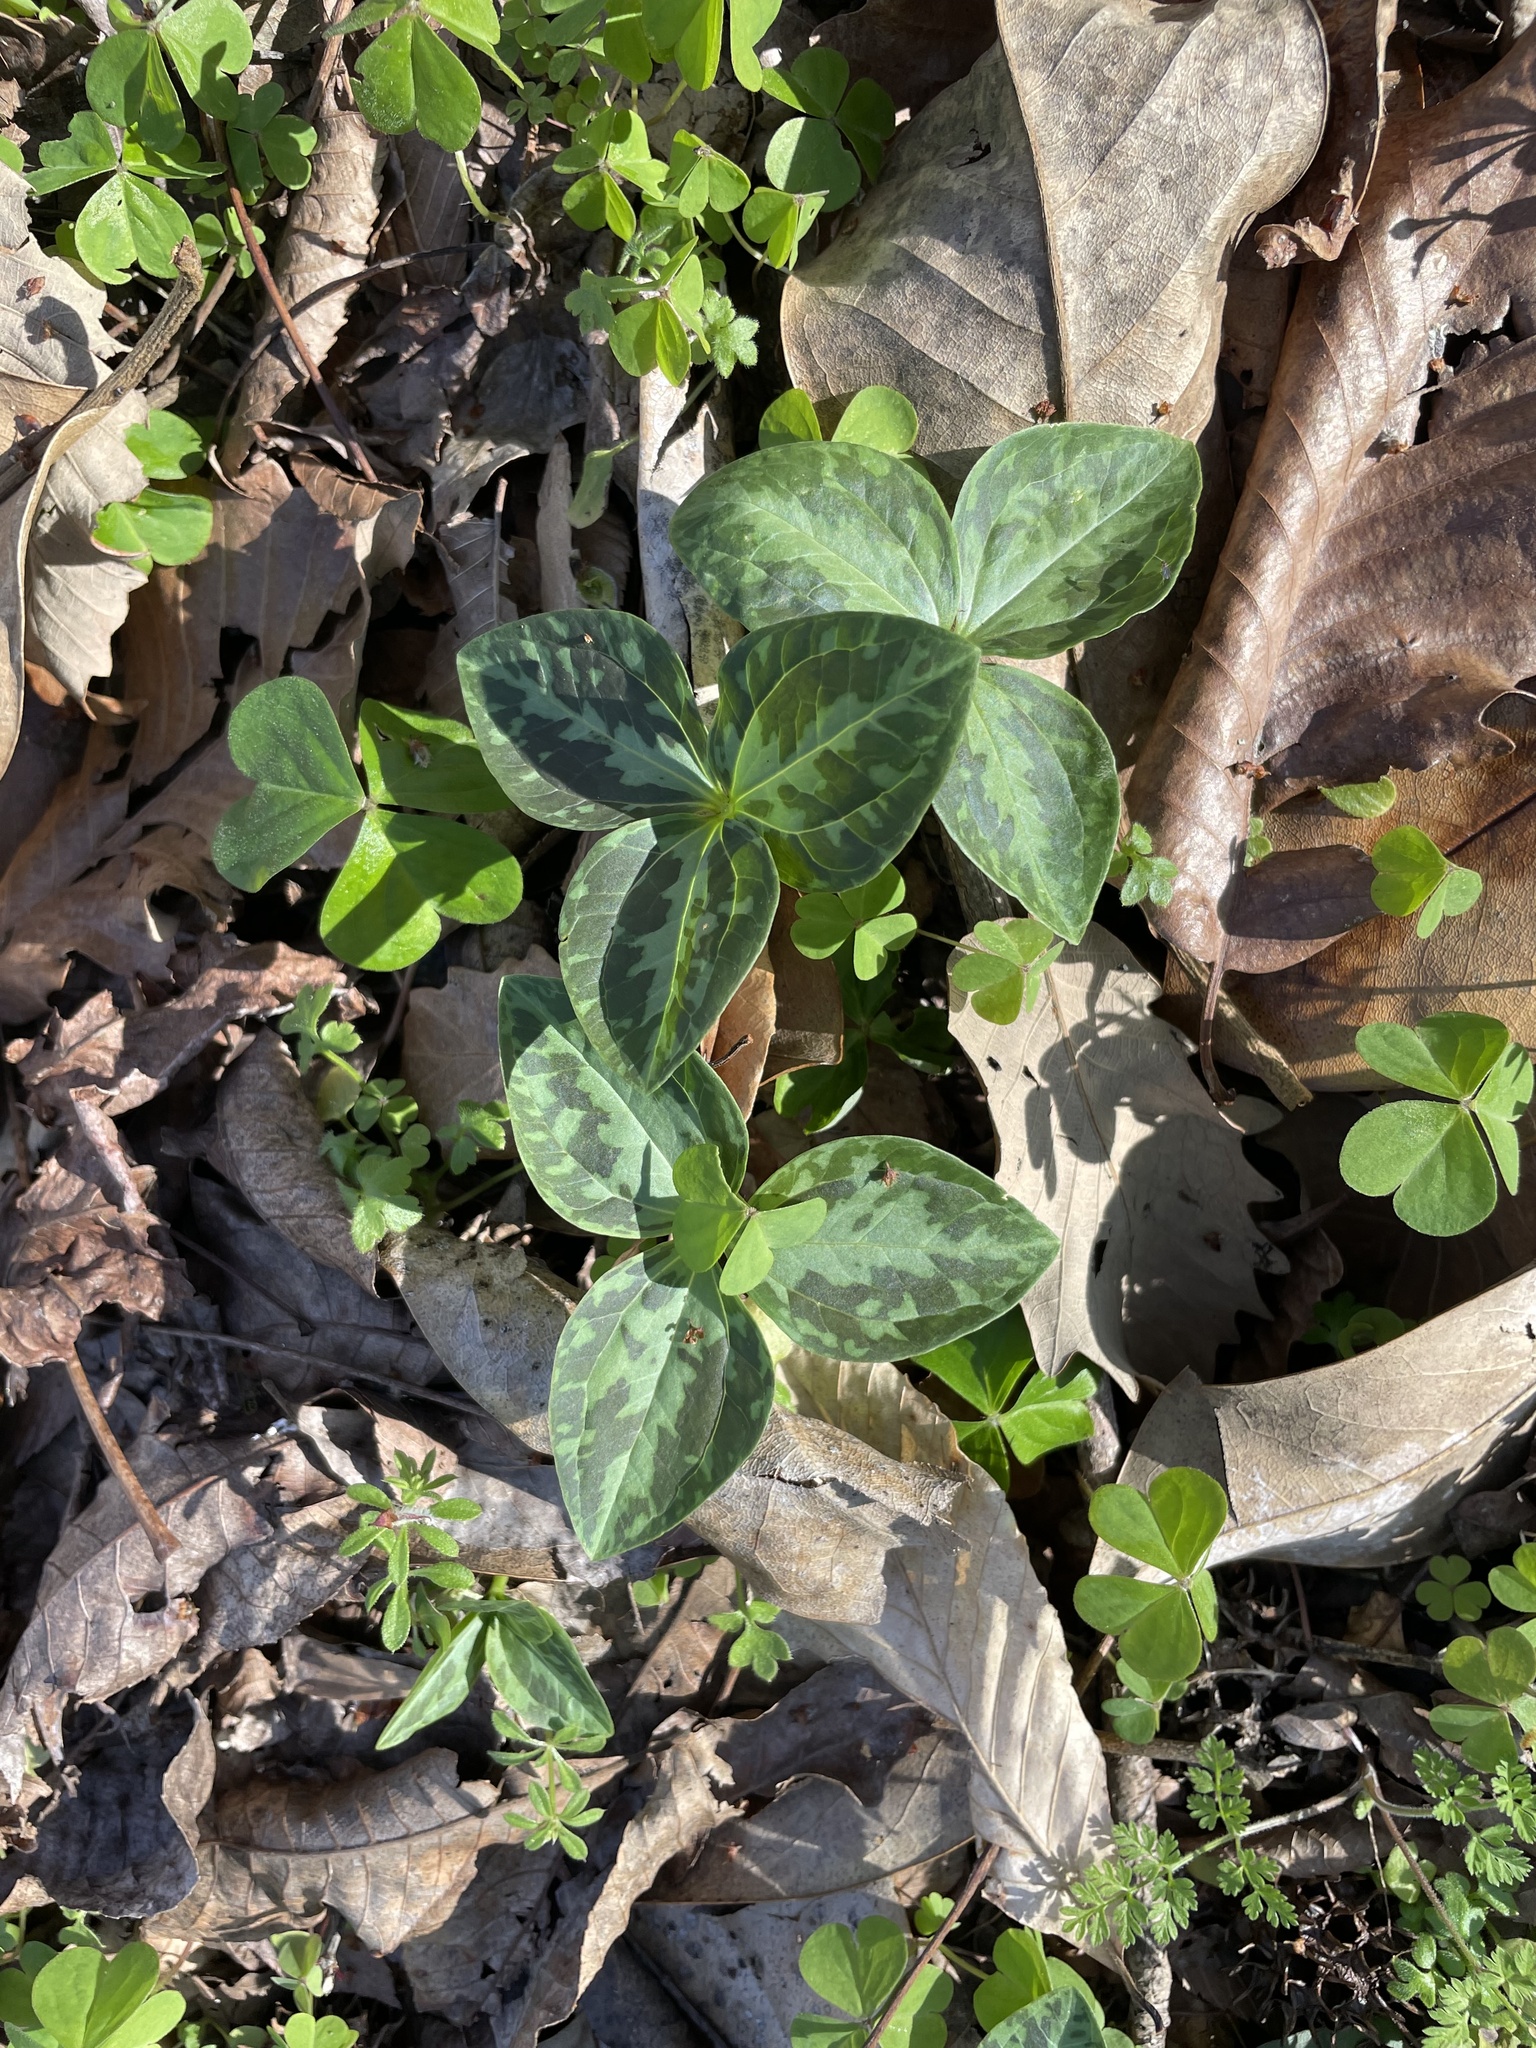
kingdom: Plantae
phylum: Tracheophyta
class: Liliopsida
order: Liliales
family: Melanthiaceae
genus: Trillium
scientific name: Trillium foetidissimum
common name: Mississippi river trillium
